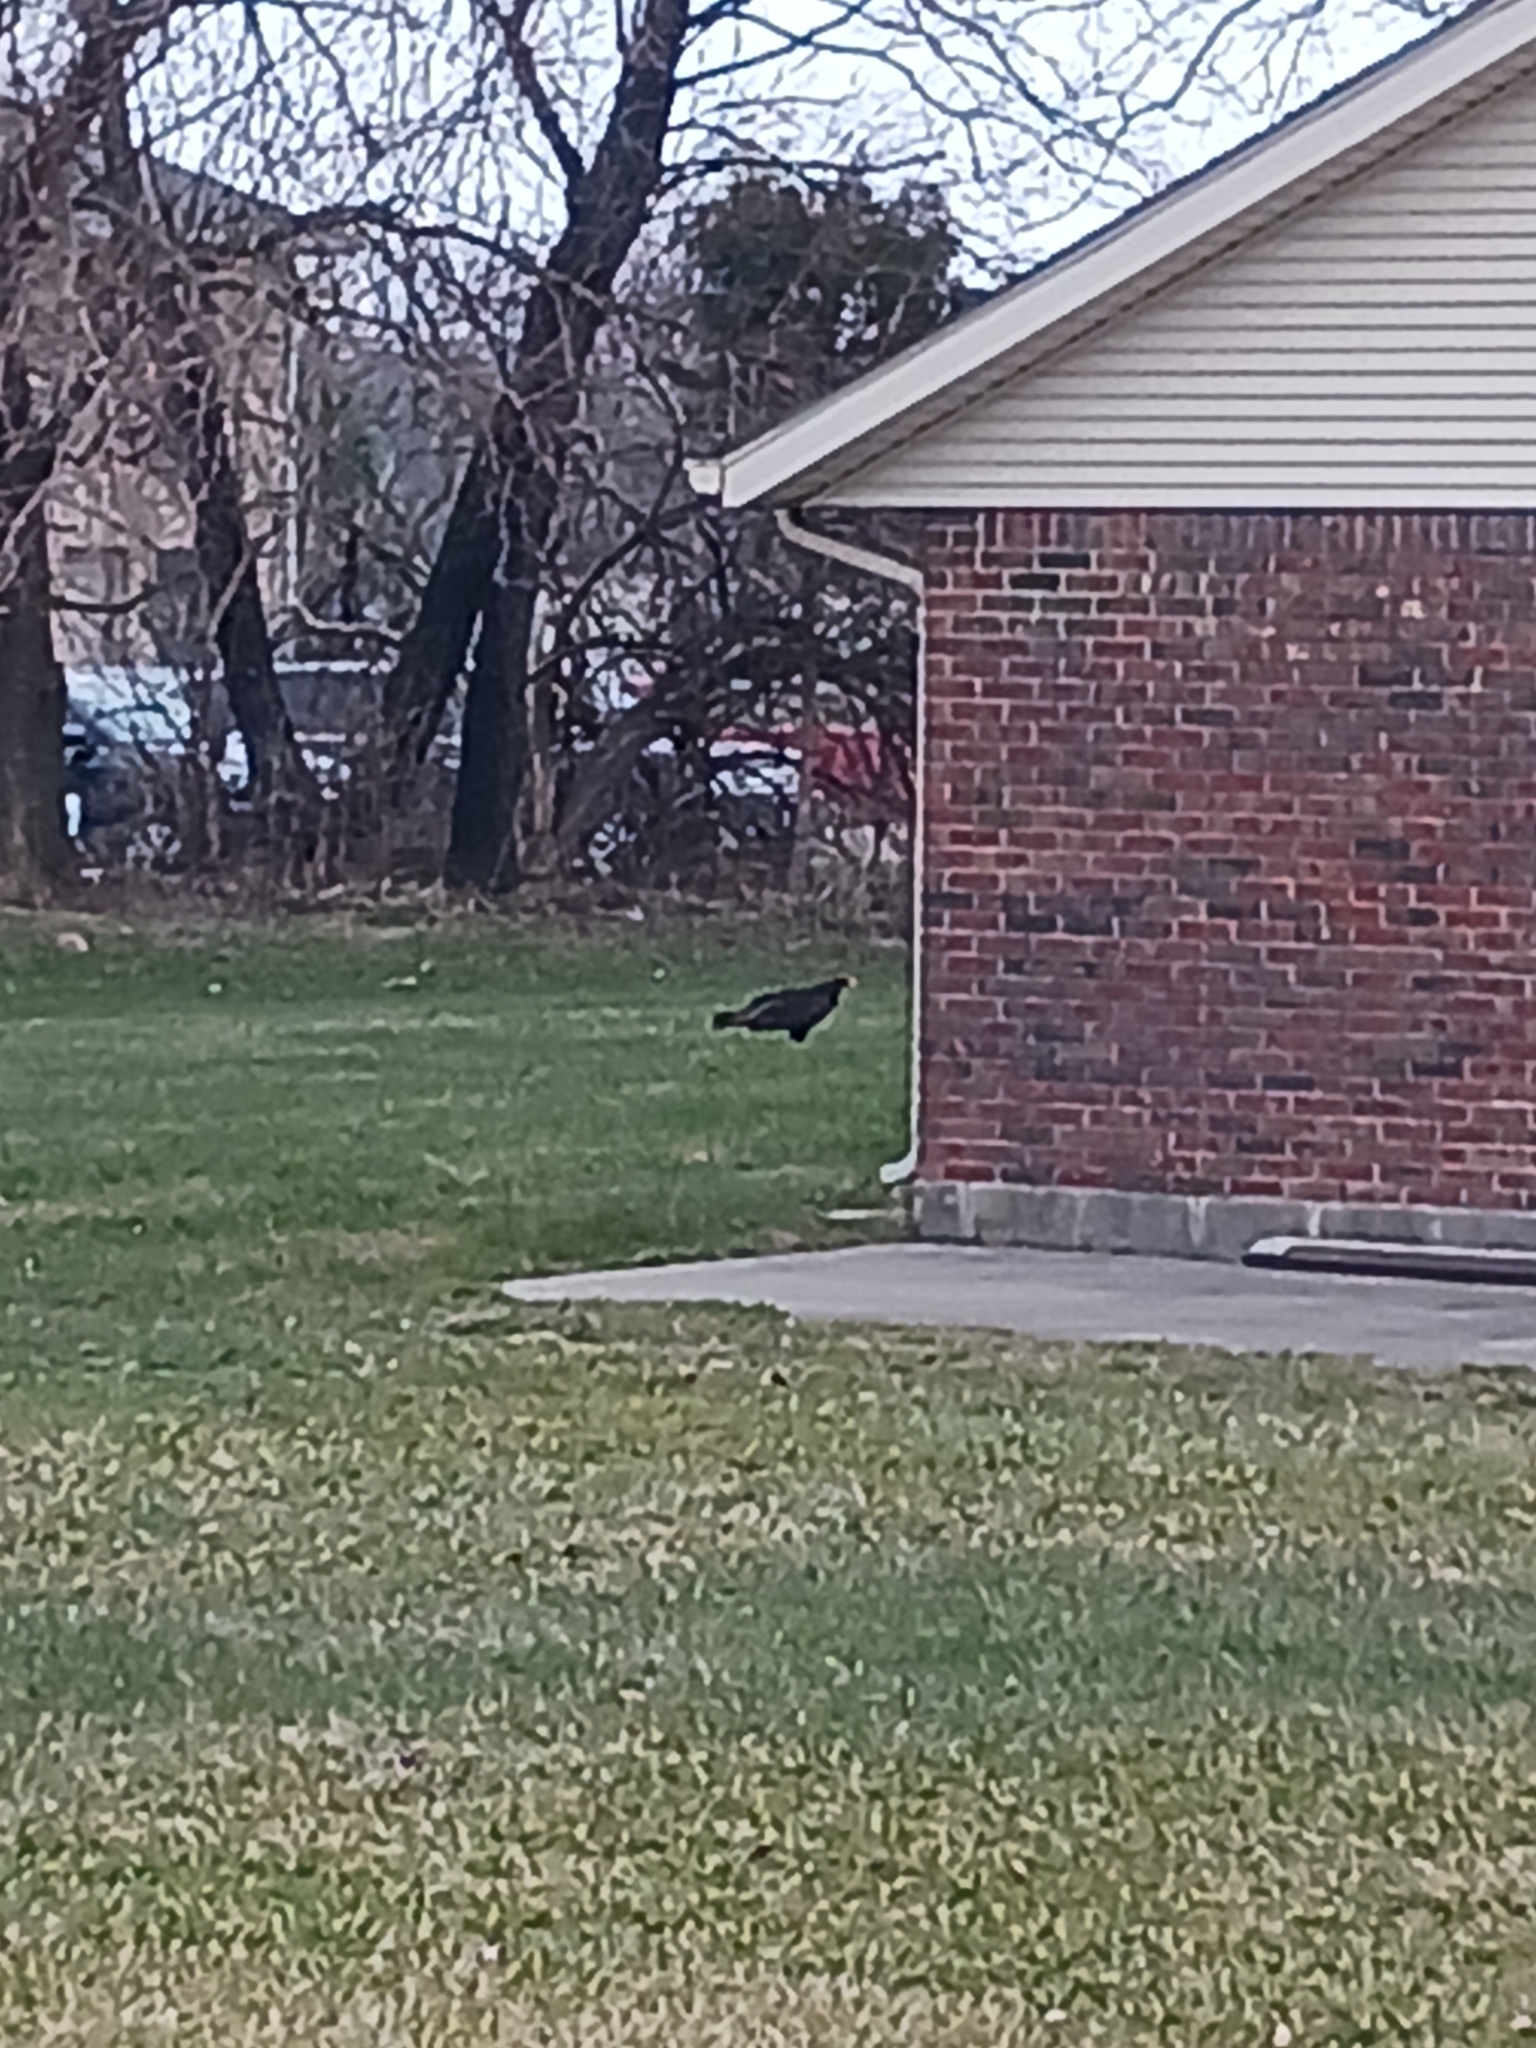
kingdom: Animalia
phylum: Chordata
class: Aves
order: Accipitriformes
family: Cathartidae
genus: Cathartes
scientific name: Cathartes aura
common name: Turkey vulture
